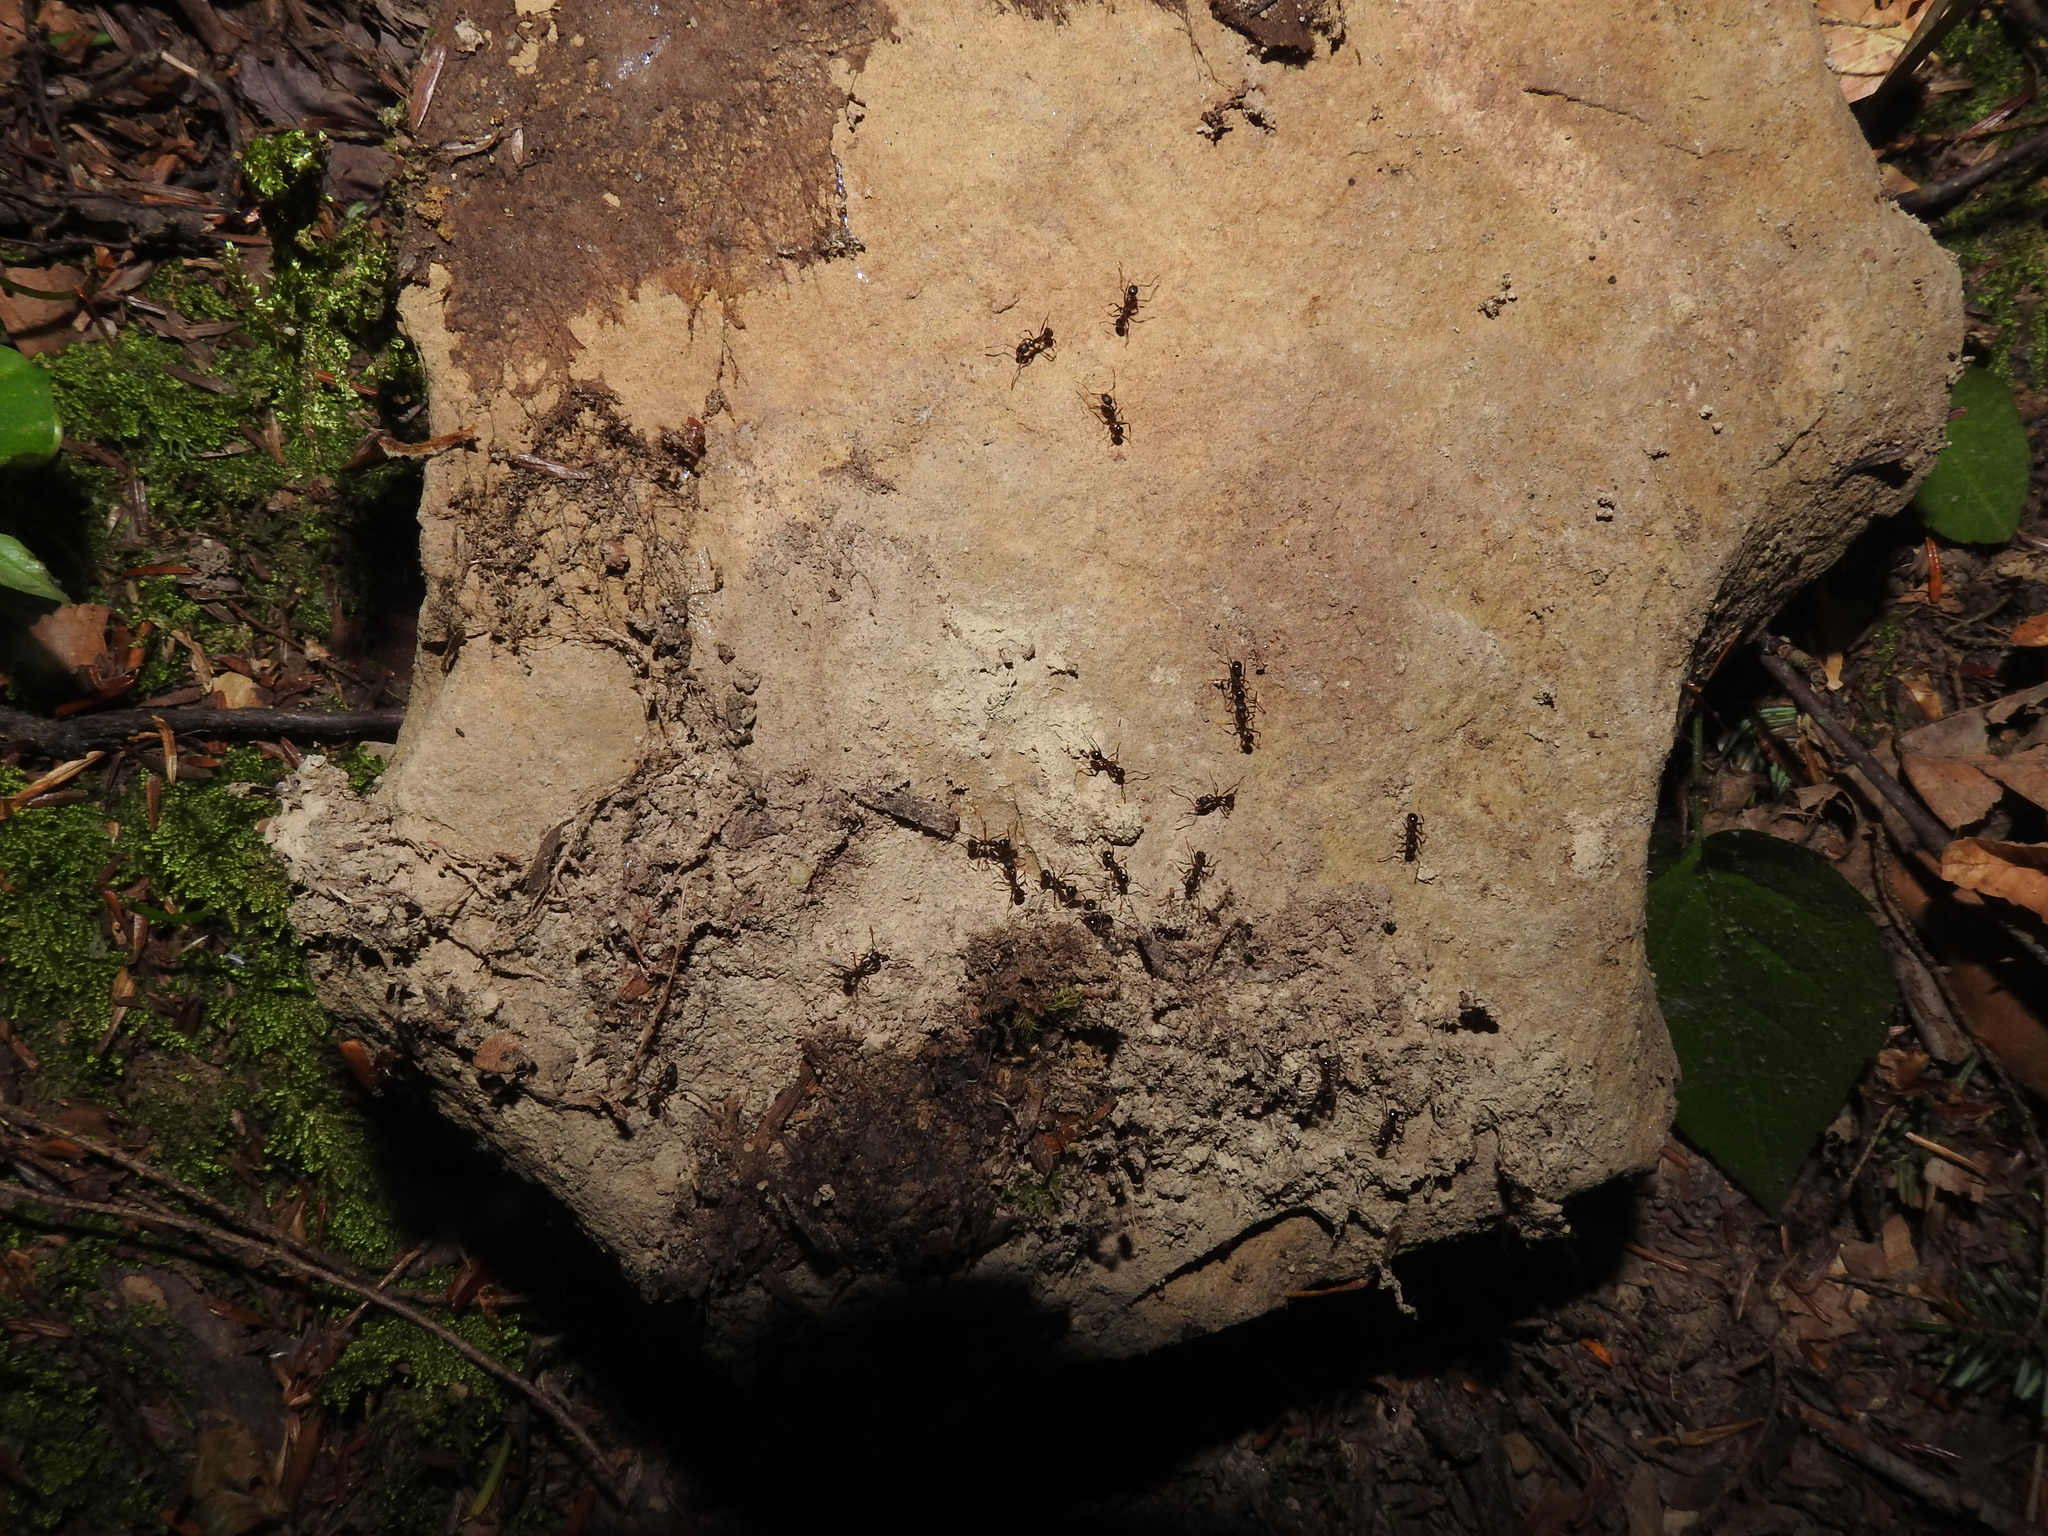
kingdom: Animalia
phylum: Arthropoda
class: Insecta
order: Hymenoptera
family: Formicidae
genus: Aphaenogaster
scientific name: Aphaenogaster rudis
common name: Winnow ant
